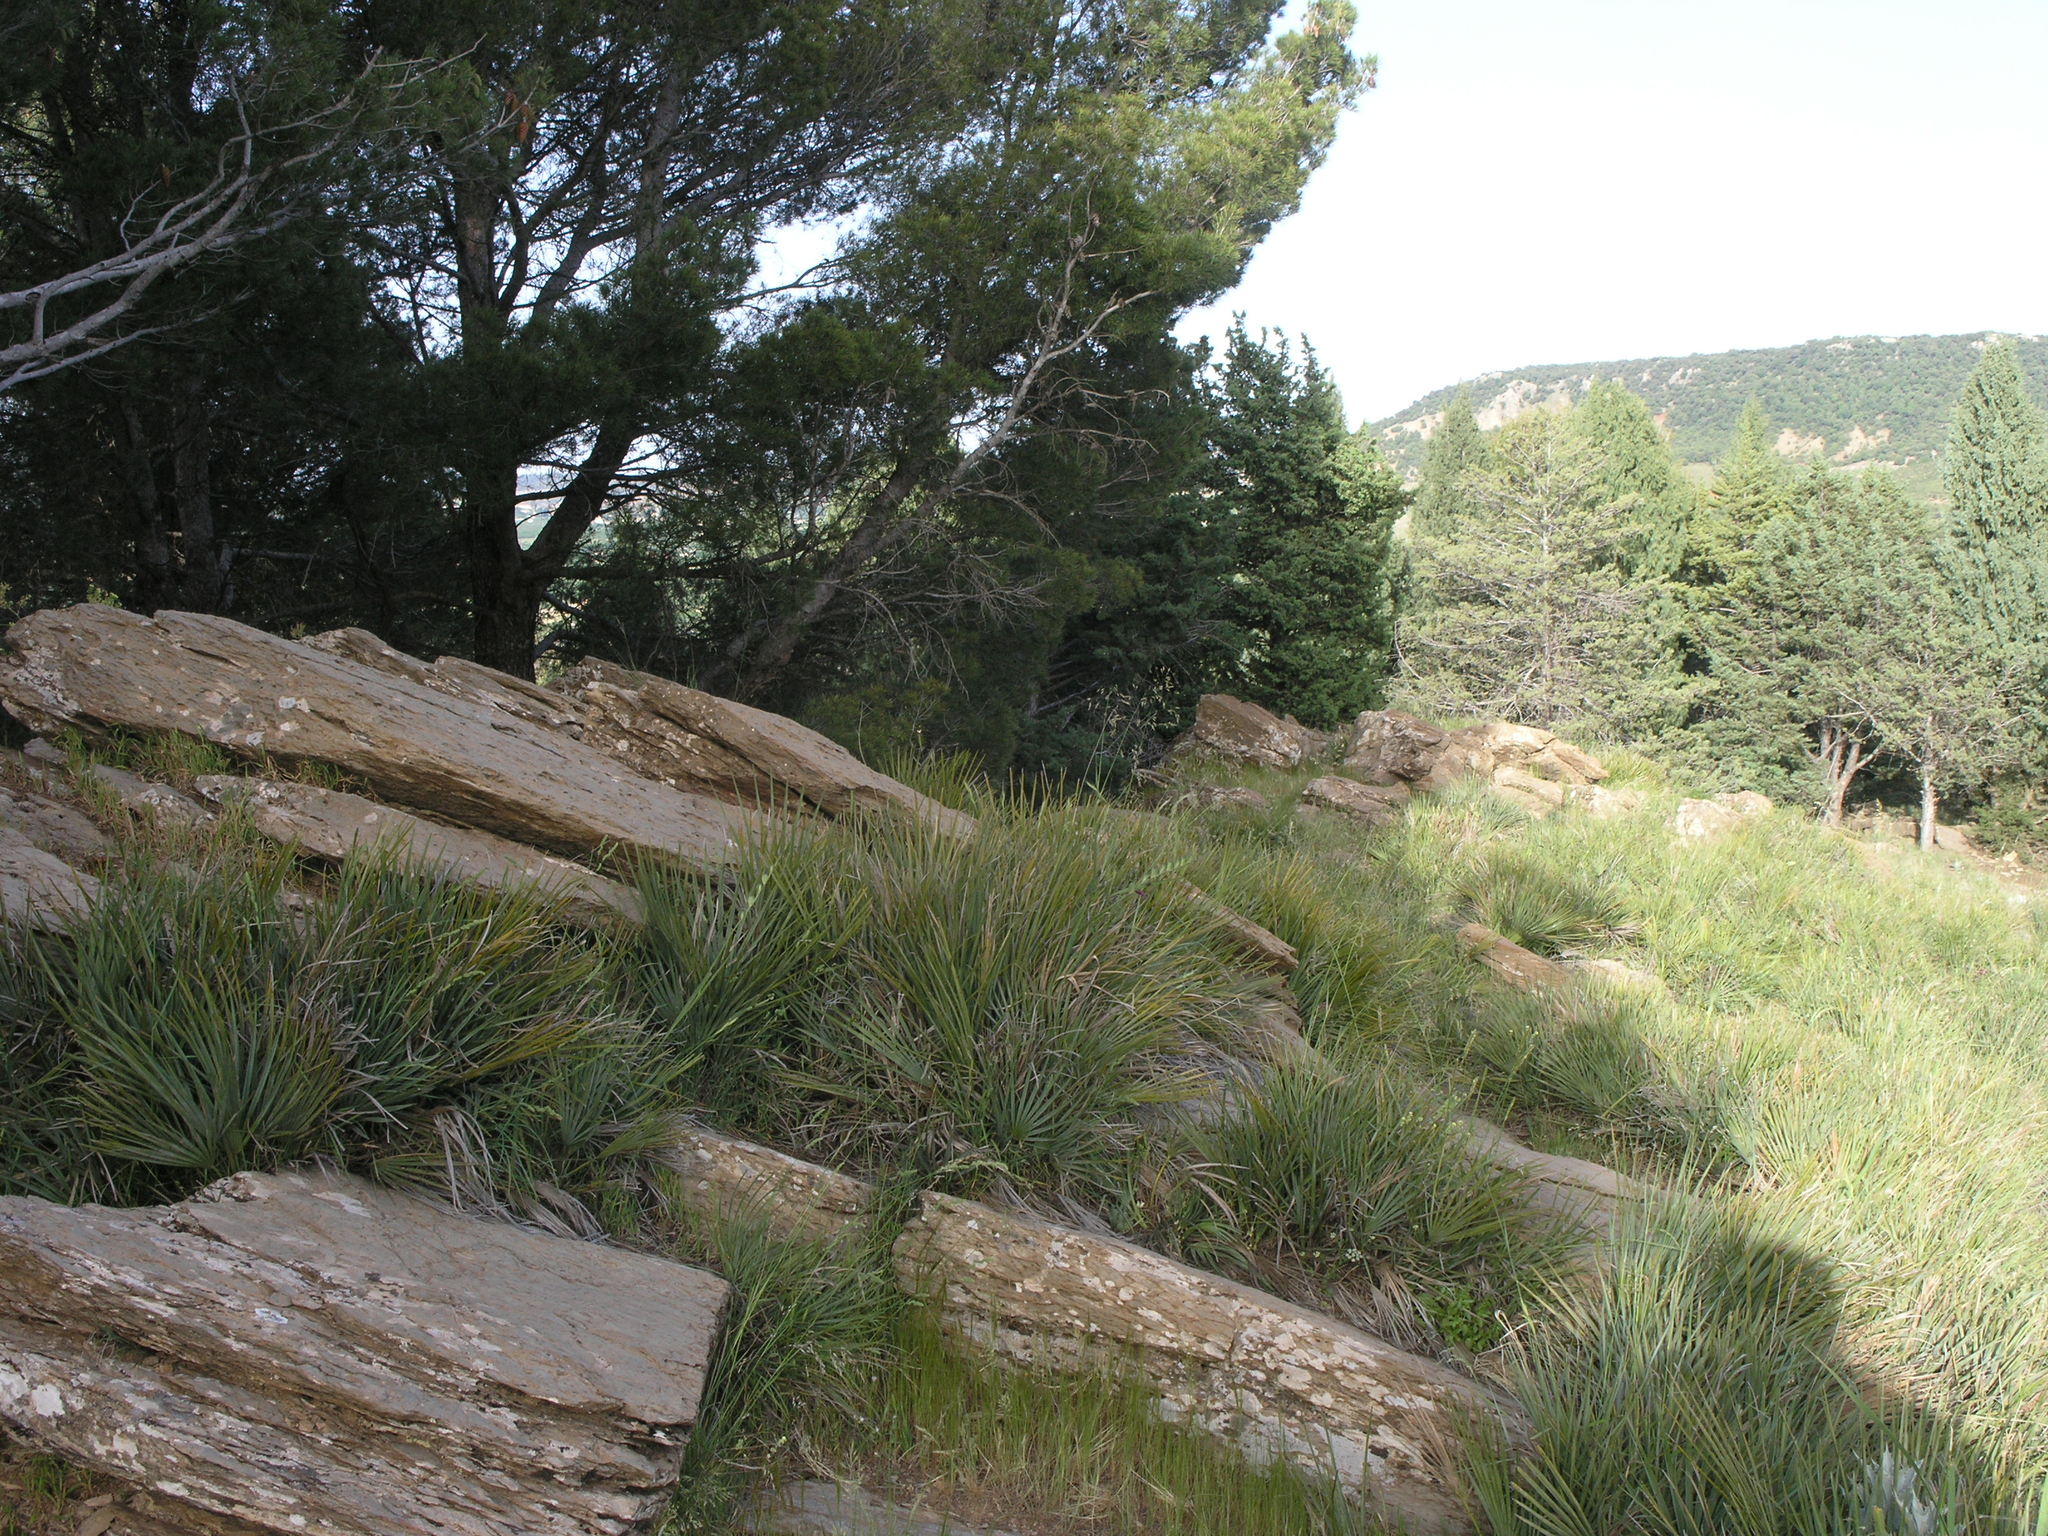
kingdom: Plantae
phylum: Tracheophyta
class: Liliopsida
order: Arecales
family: Arecaceae
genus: Chamaerops
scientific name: Chamaerops humilis
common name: Dwarf fan palm
